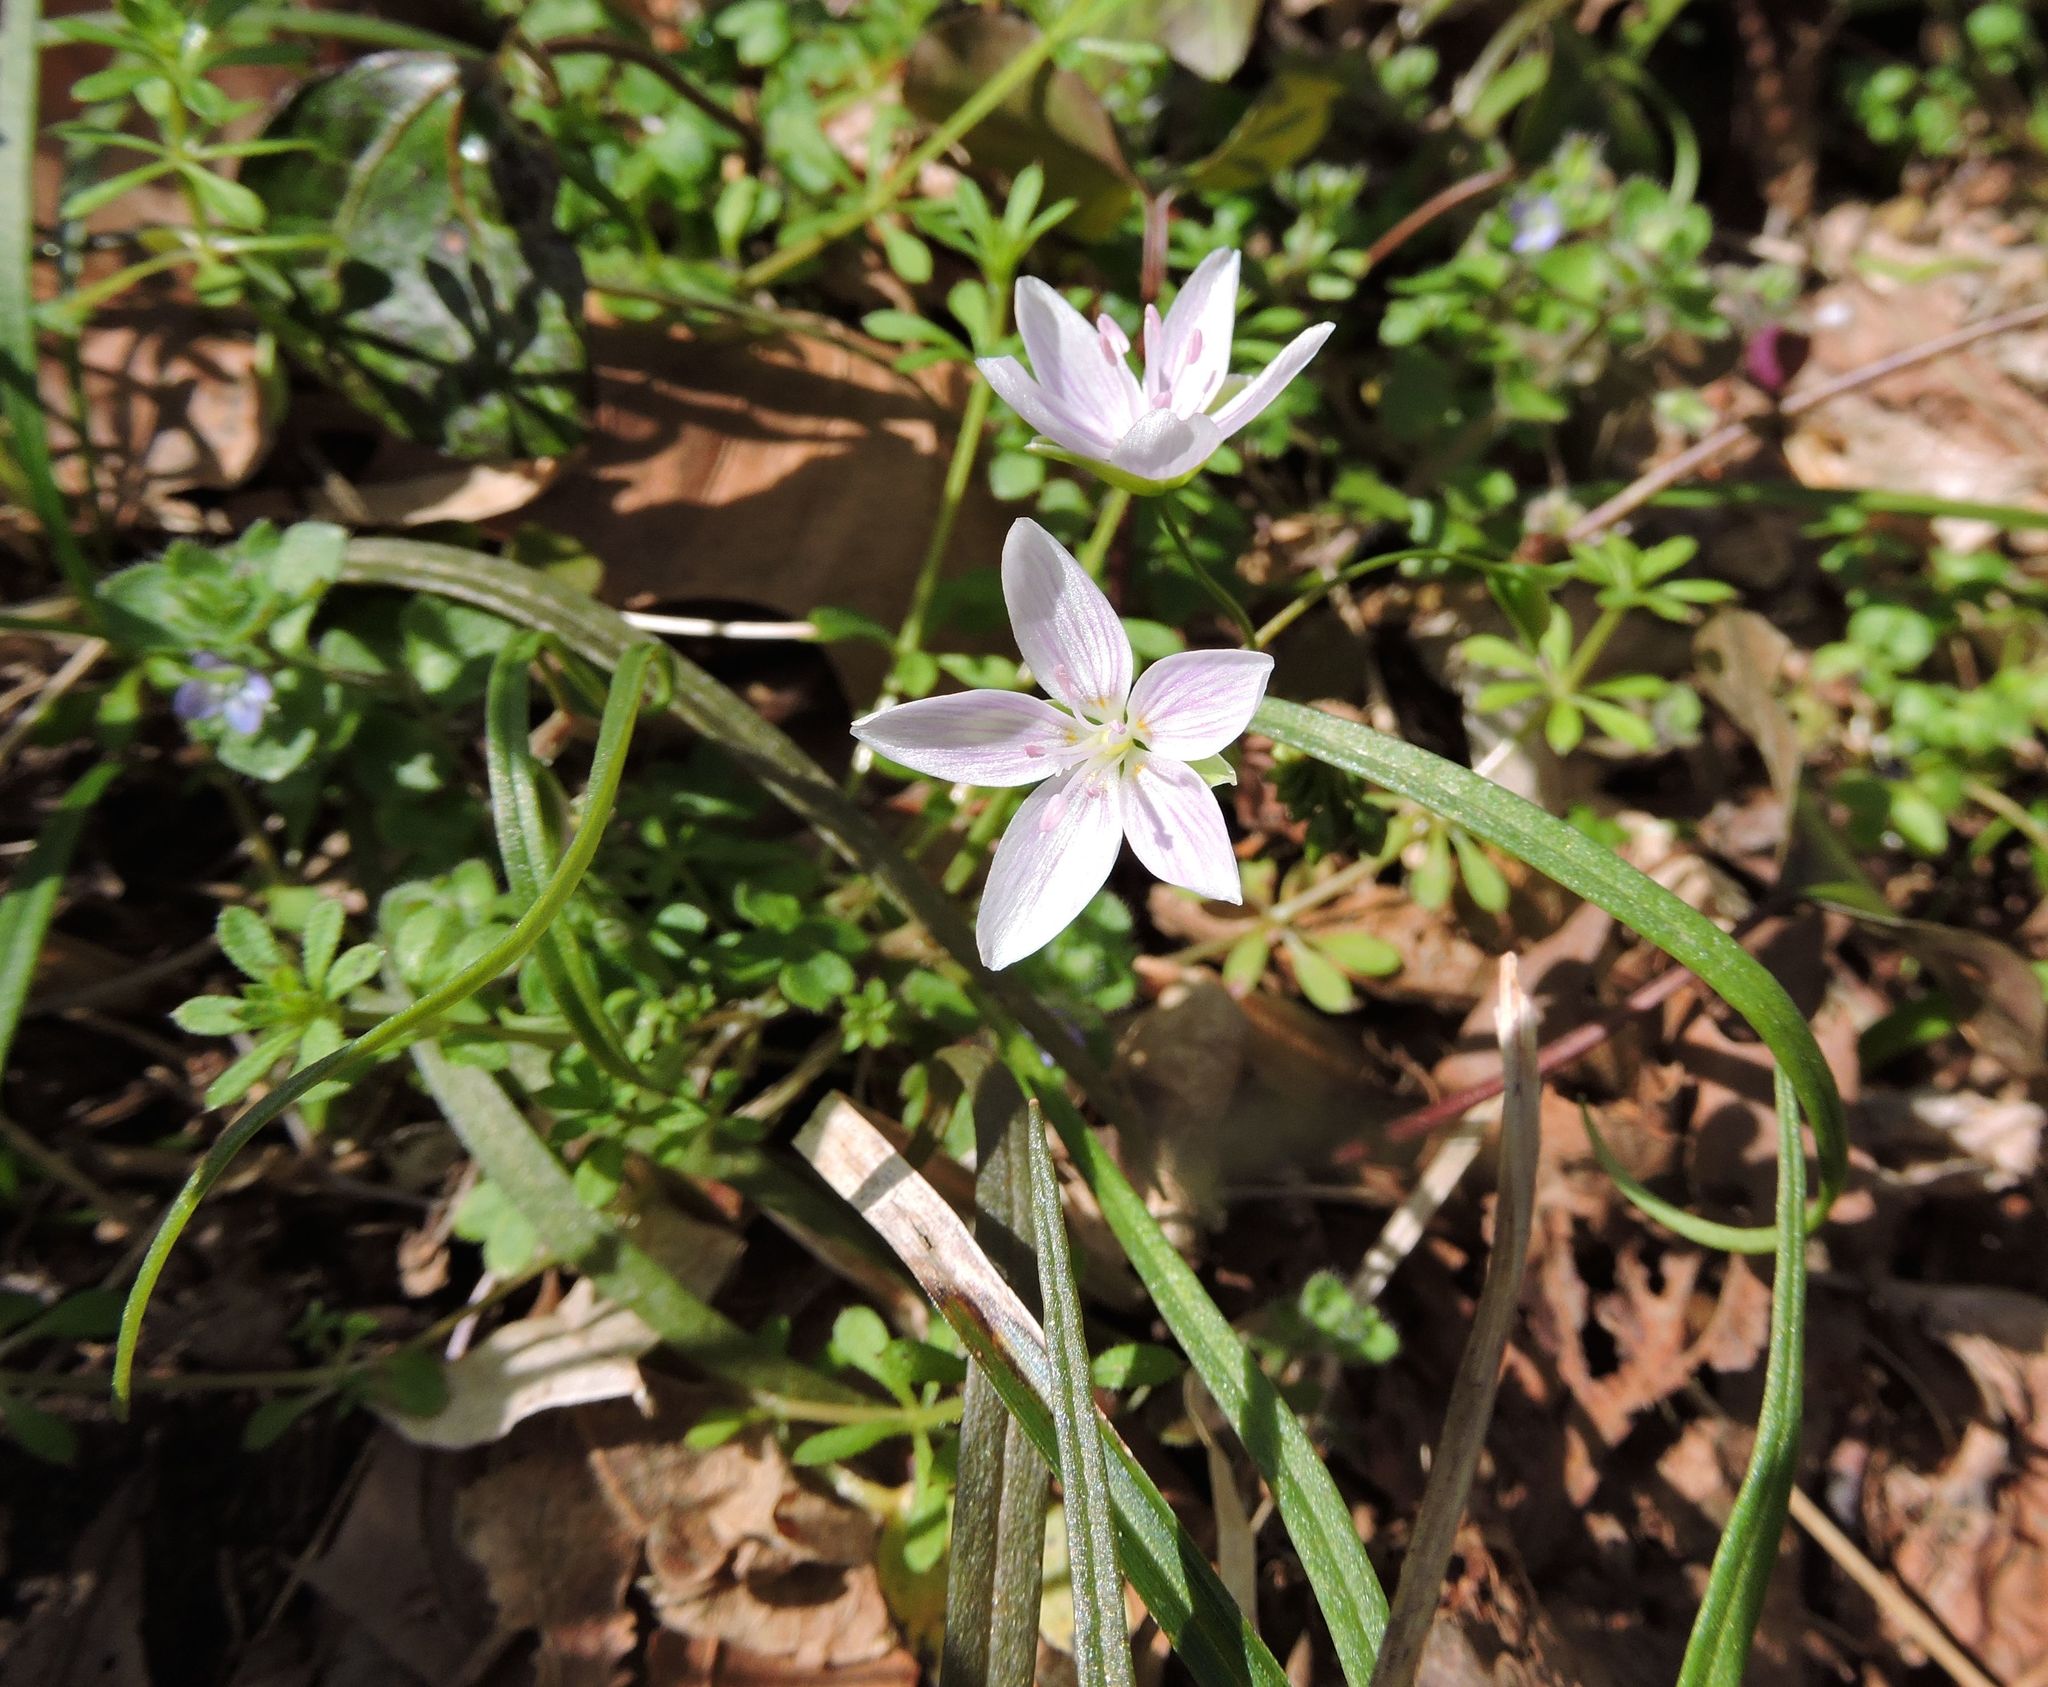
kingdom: Plantae
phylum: Tracheophyta
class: Magnoliopsida
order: Caryophyllales
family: Montiaceae
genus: Claytonia
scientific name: Claytonia virginica
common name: Virginia springbeauty
